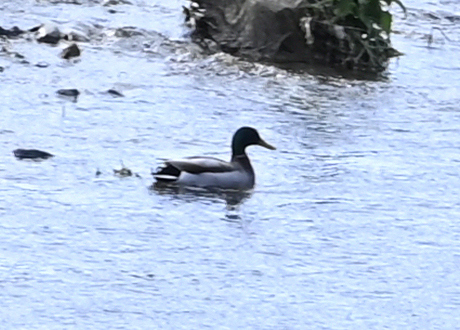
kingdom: Animalia
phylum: Chordata
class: Aves
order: Anseriformes
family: Anatidae
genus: Anas
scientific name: Anas platyrhynchos
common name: Mallard
